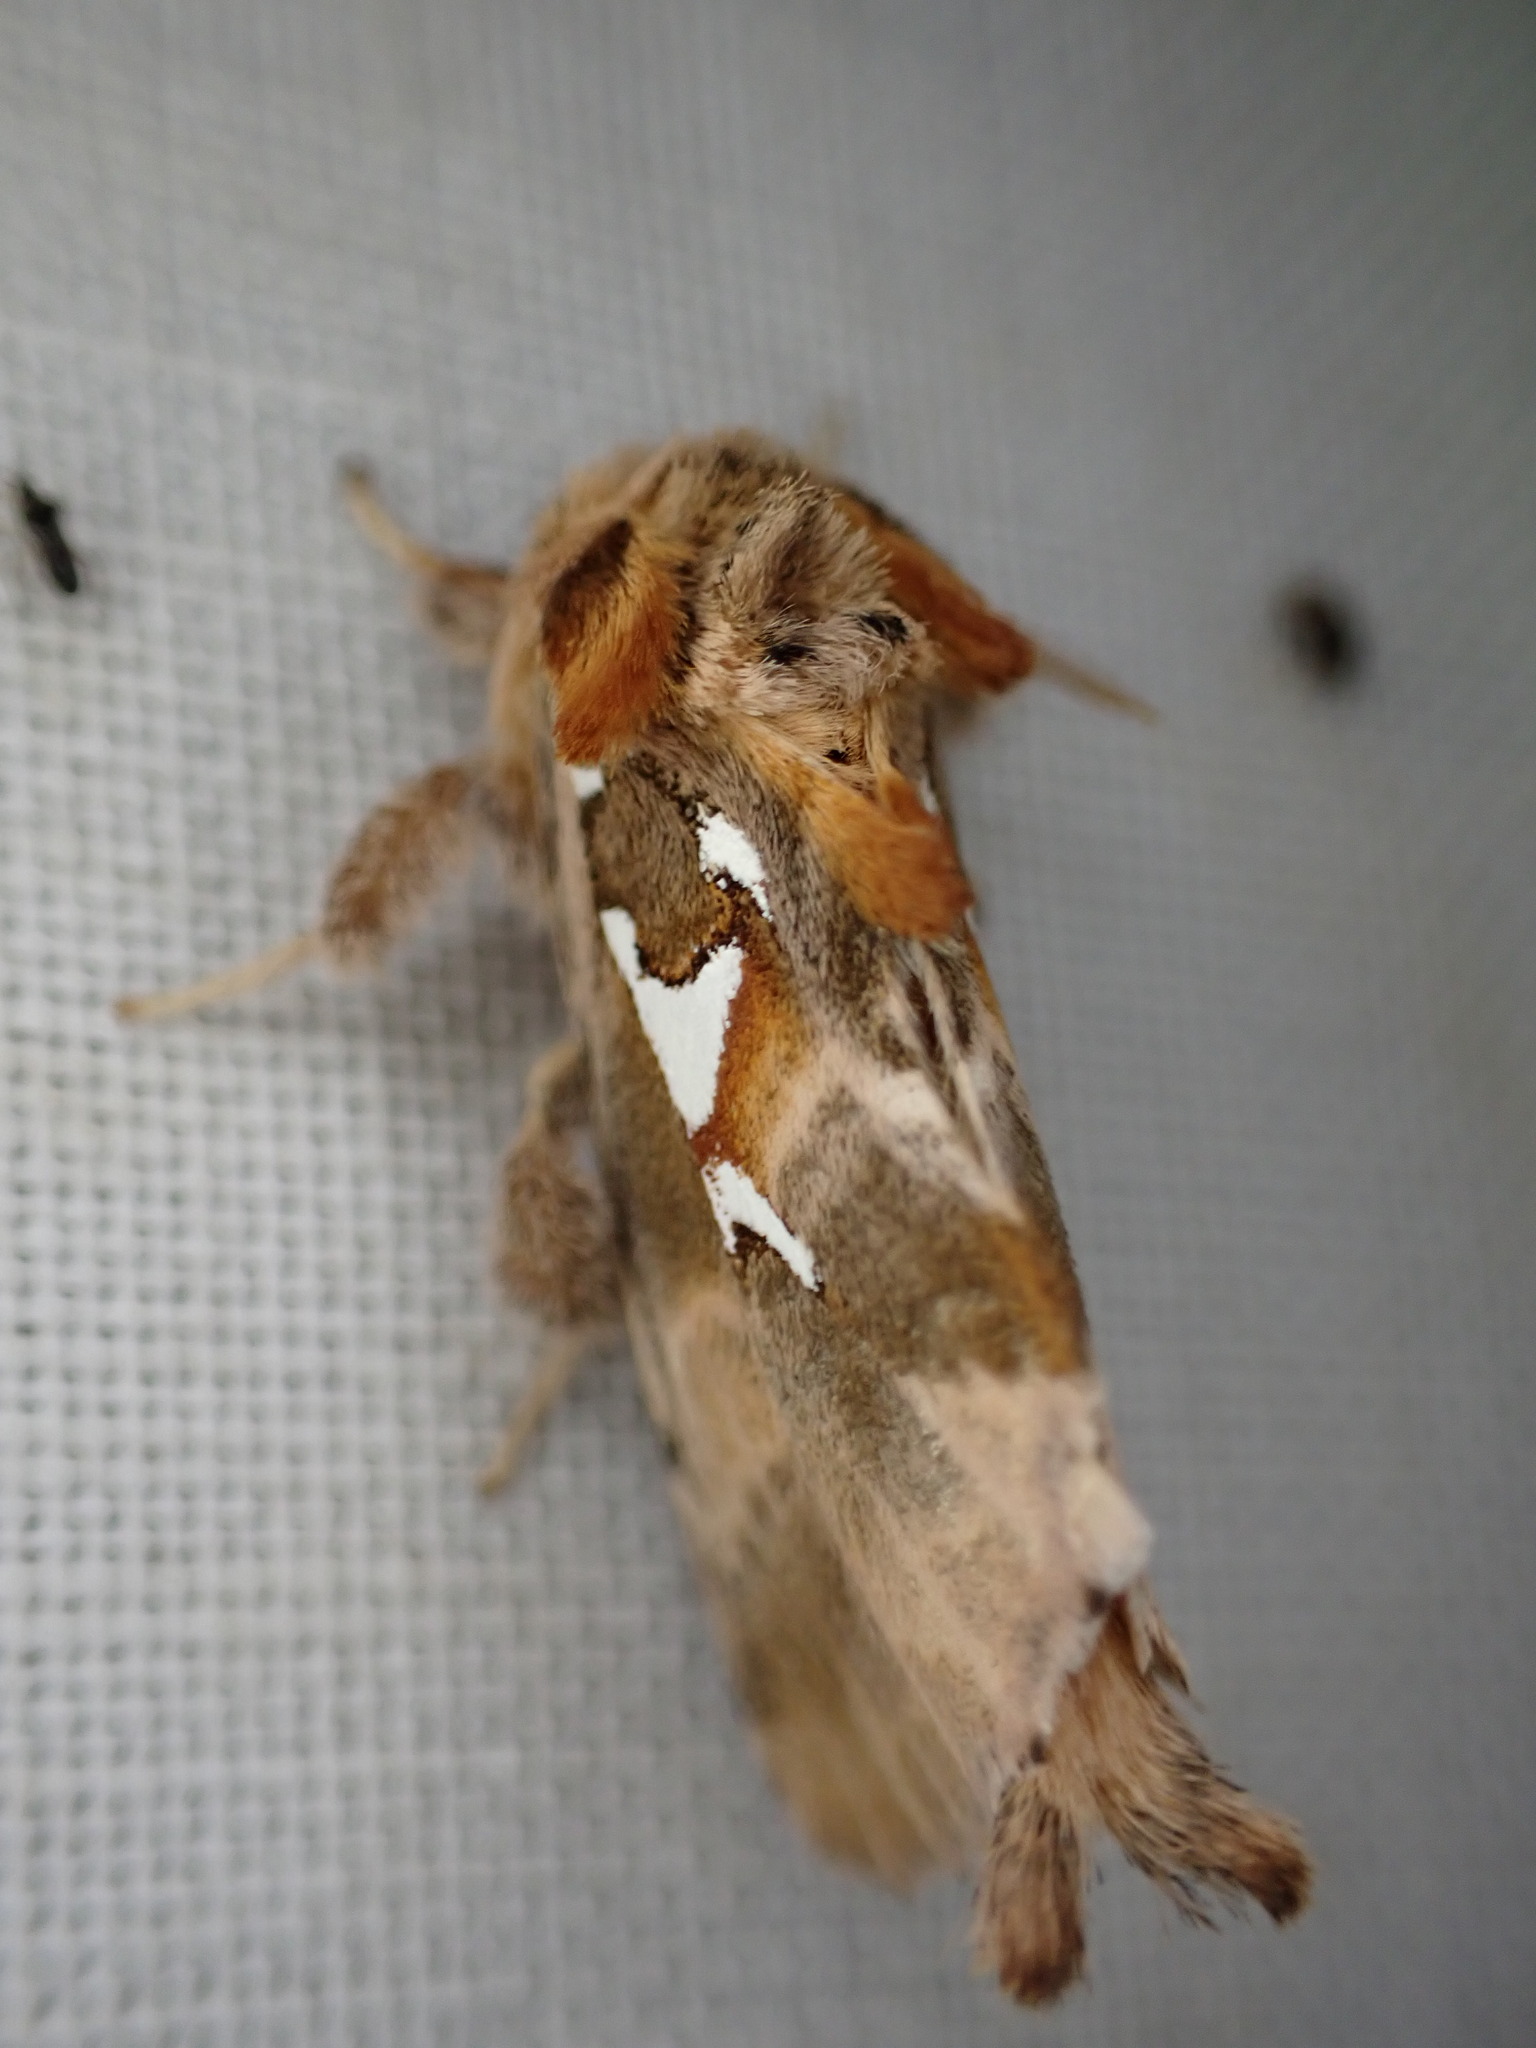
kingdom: Animalia
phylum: Arthropoda
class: Insecta
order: Lepidoptera
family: Notodontidae
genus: Spatalia
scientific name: Spatalia argentina
